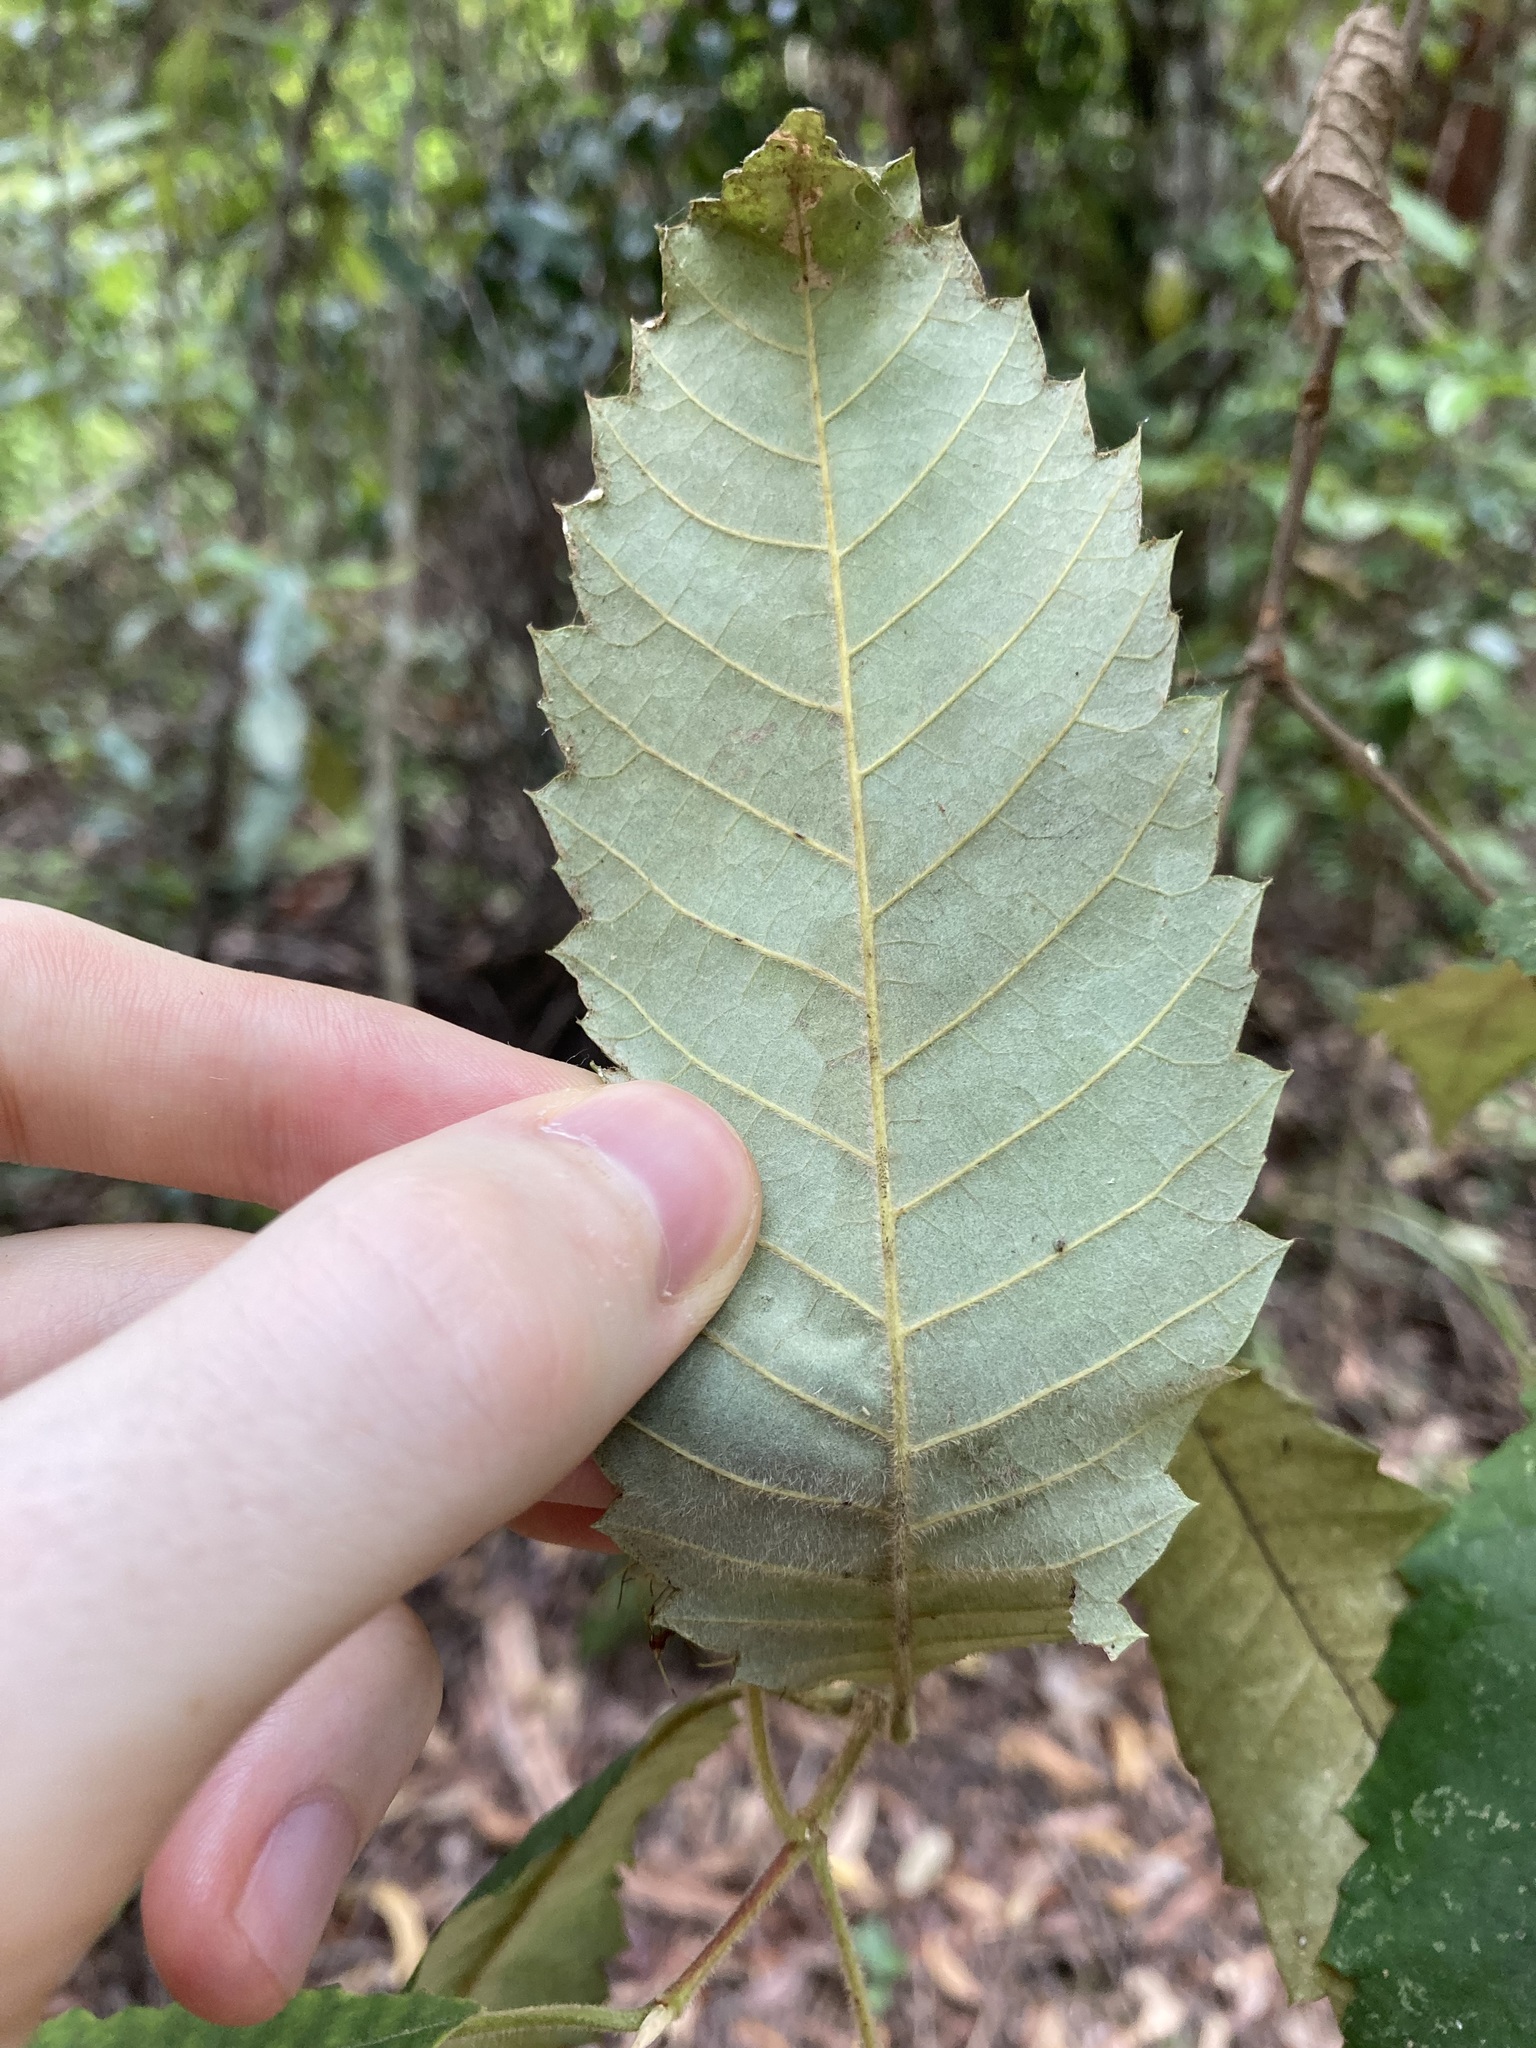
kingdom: Plantae
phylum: Tracheophyta
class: Magnoliopsida
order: Oxalidales
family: Cunoniaceae
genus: Callicoma
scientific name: Callicoma serratifolia
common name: Black wattle
